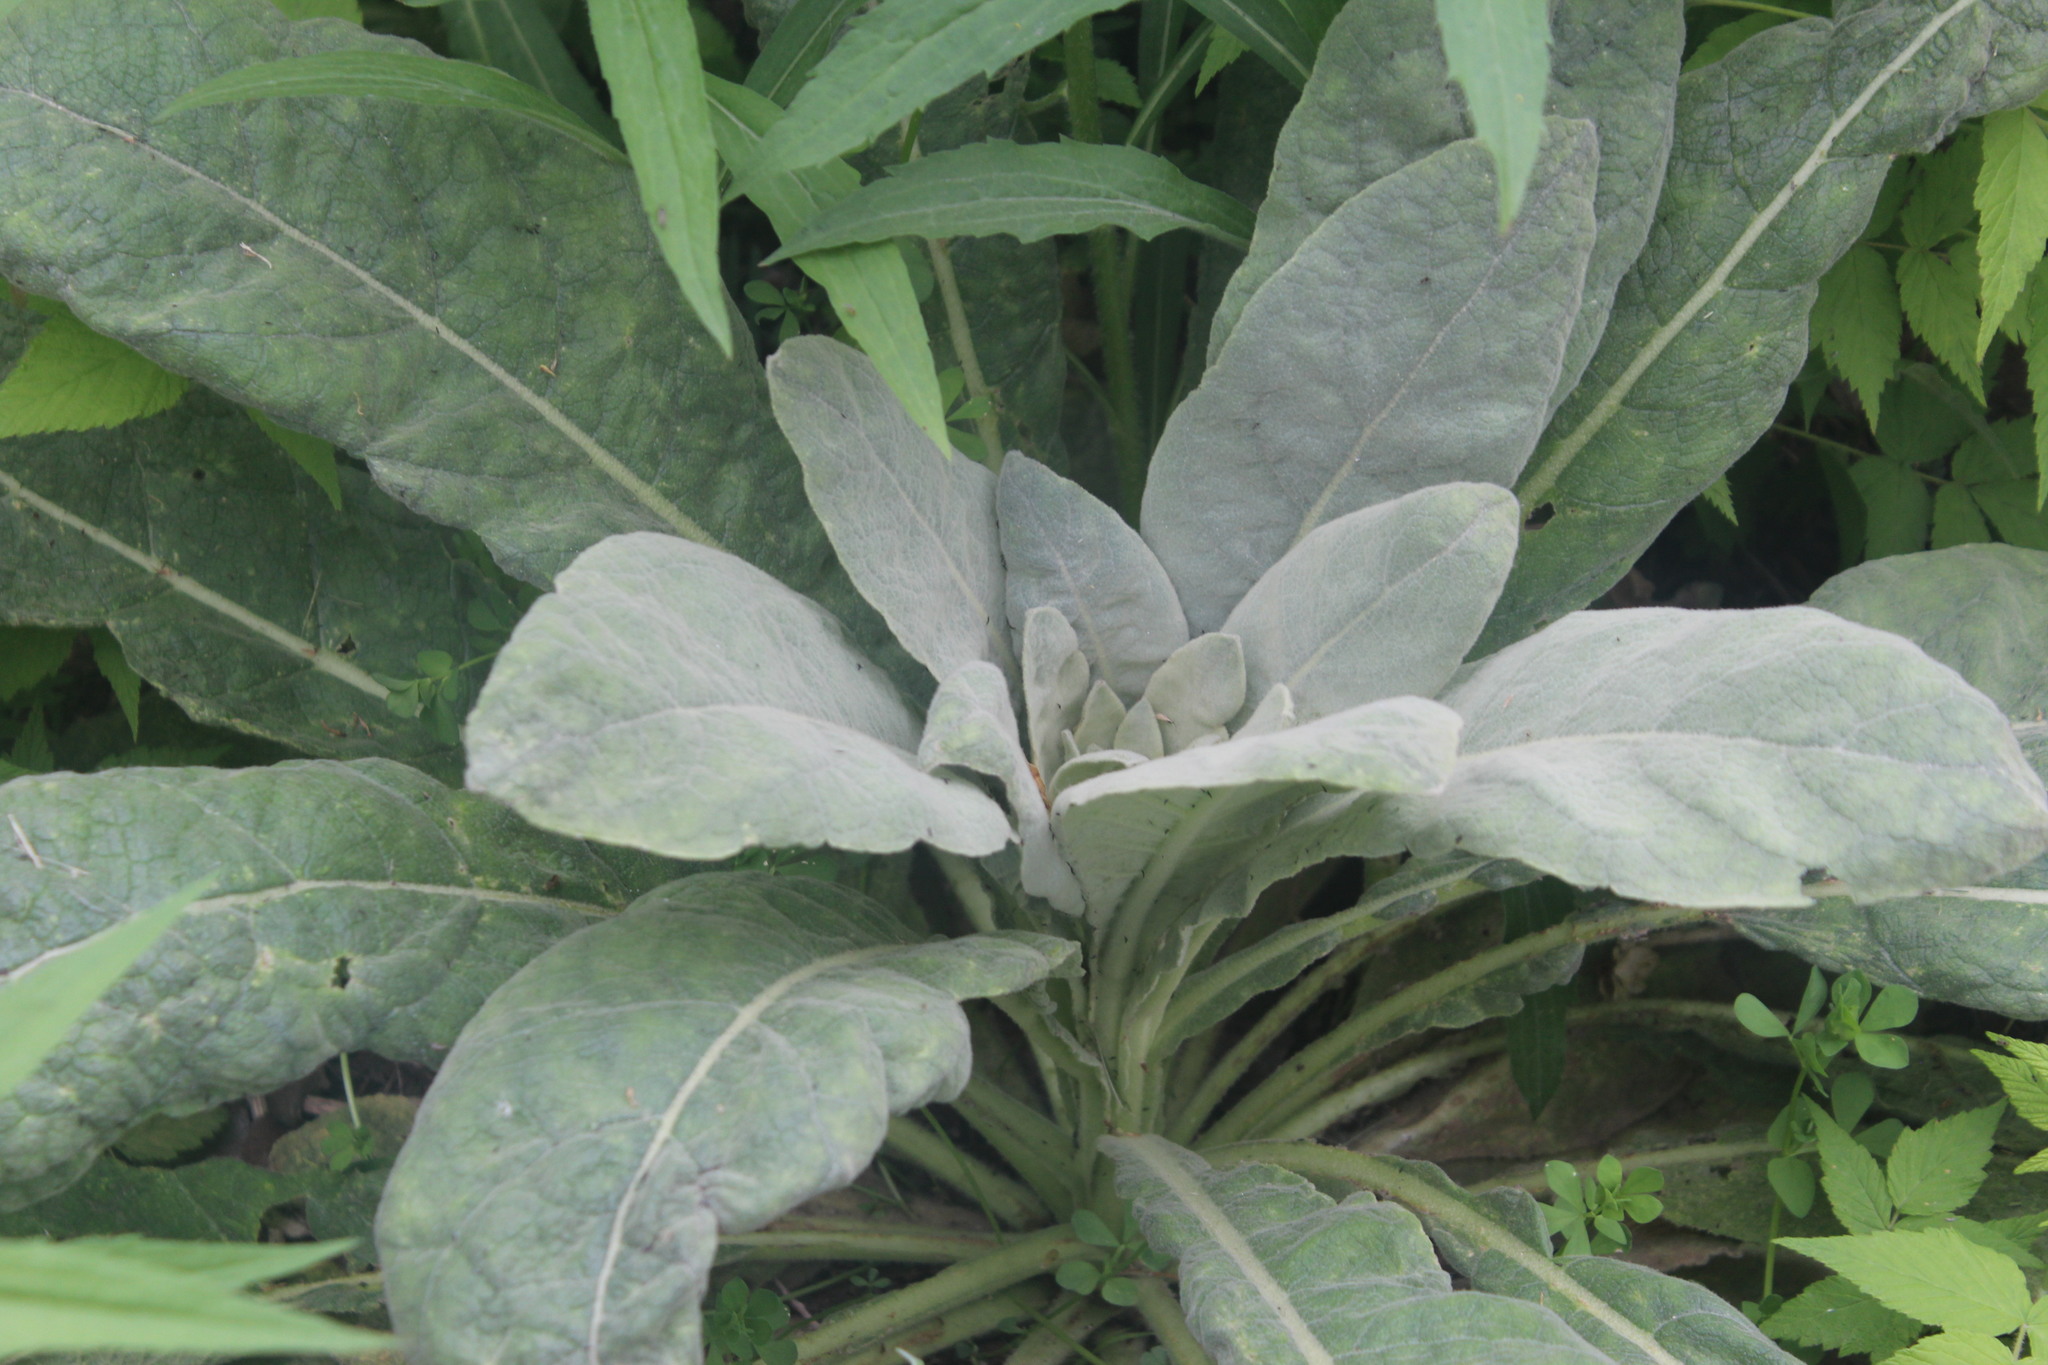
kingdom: Plantae
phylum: Tracheophyta
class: Magnoliopsida
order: Lamiales
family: Scrophulariaceae
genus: Verbascum
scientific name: Verbascum thapsus
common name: Common mullein
